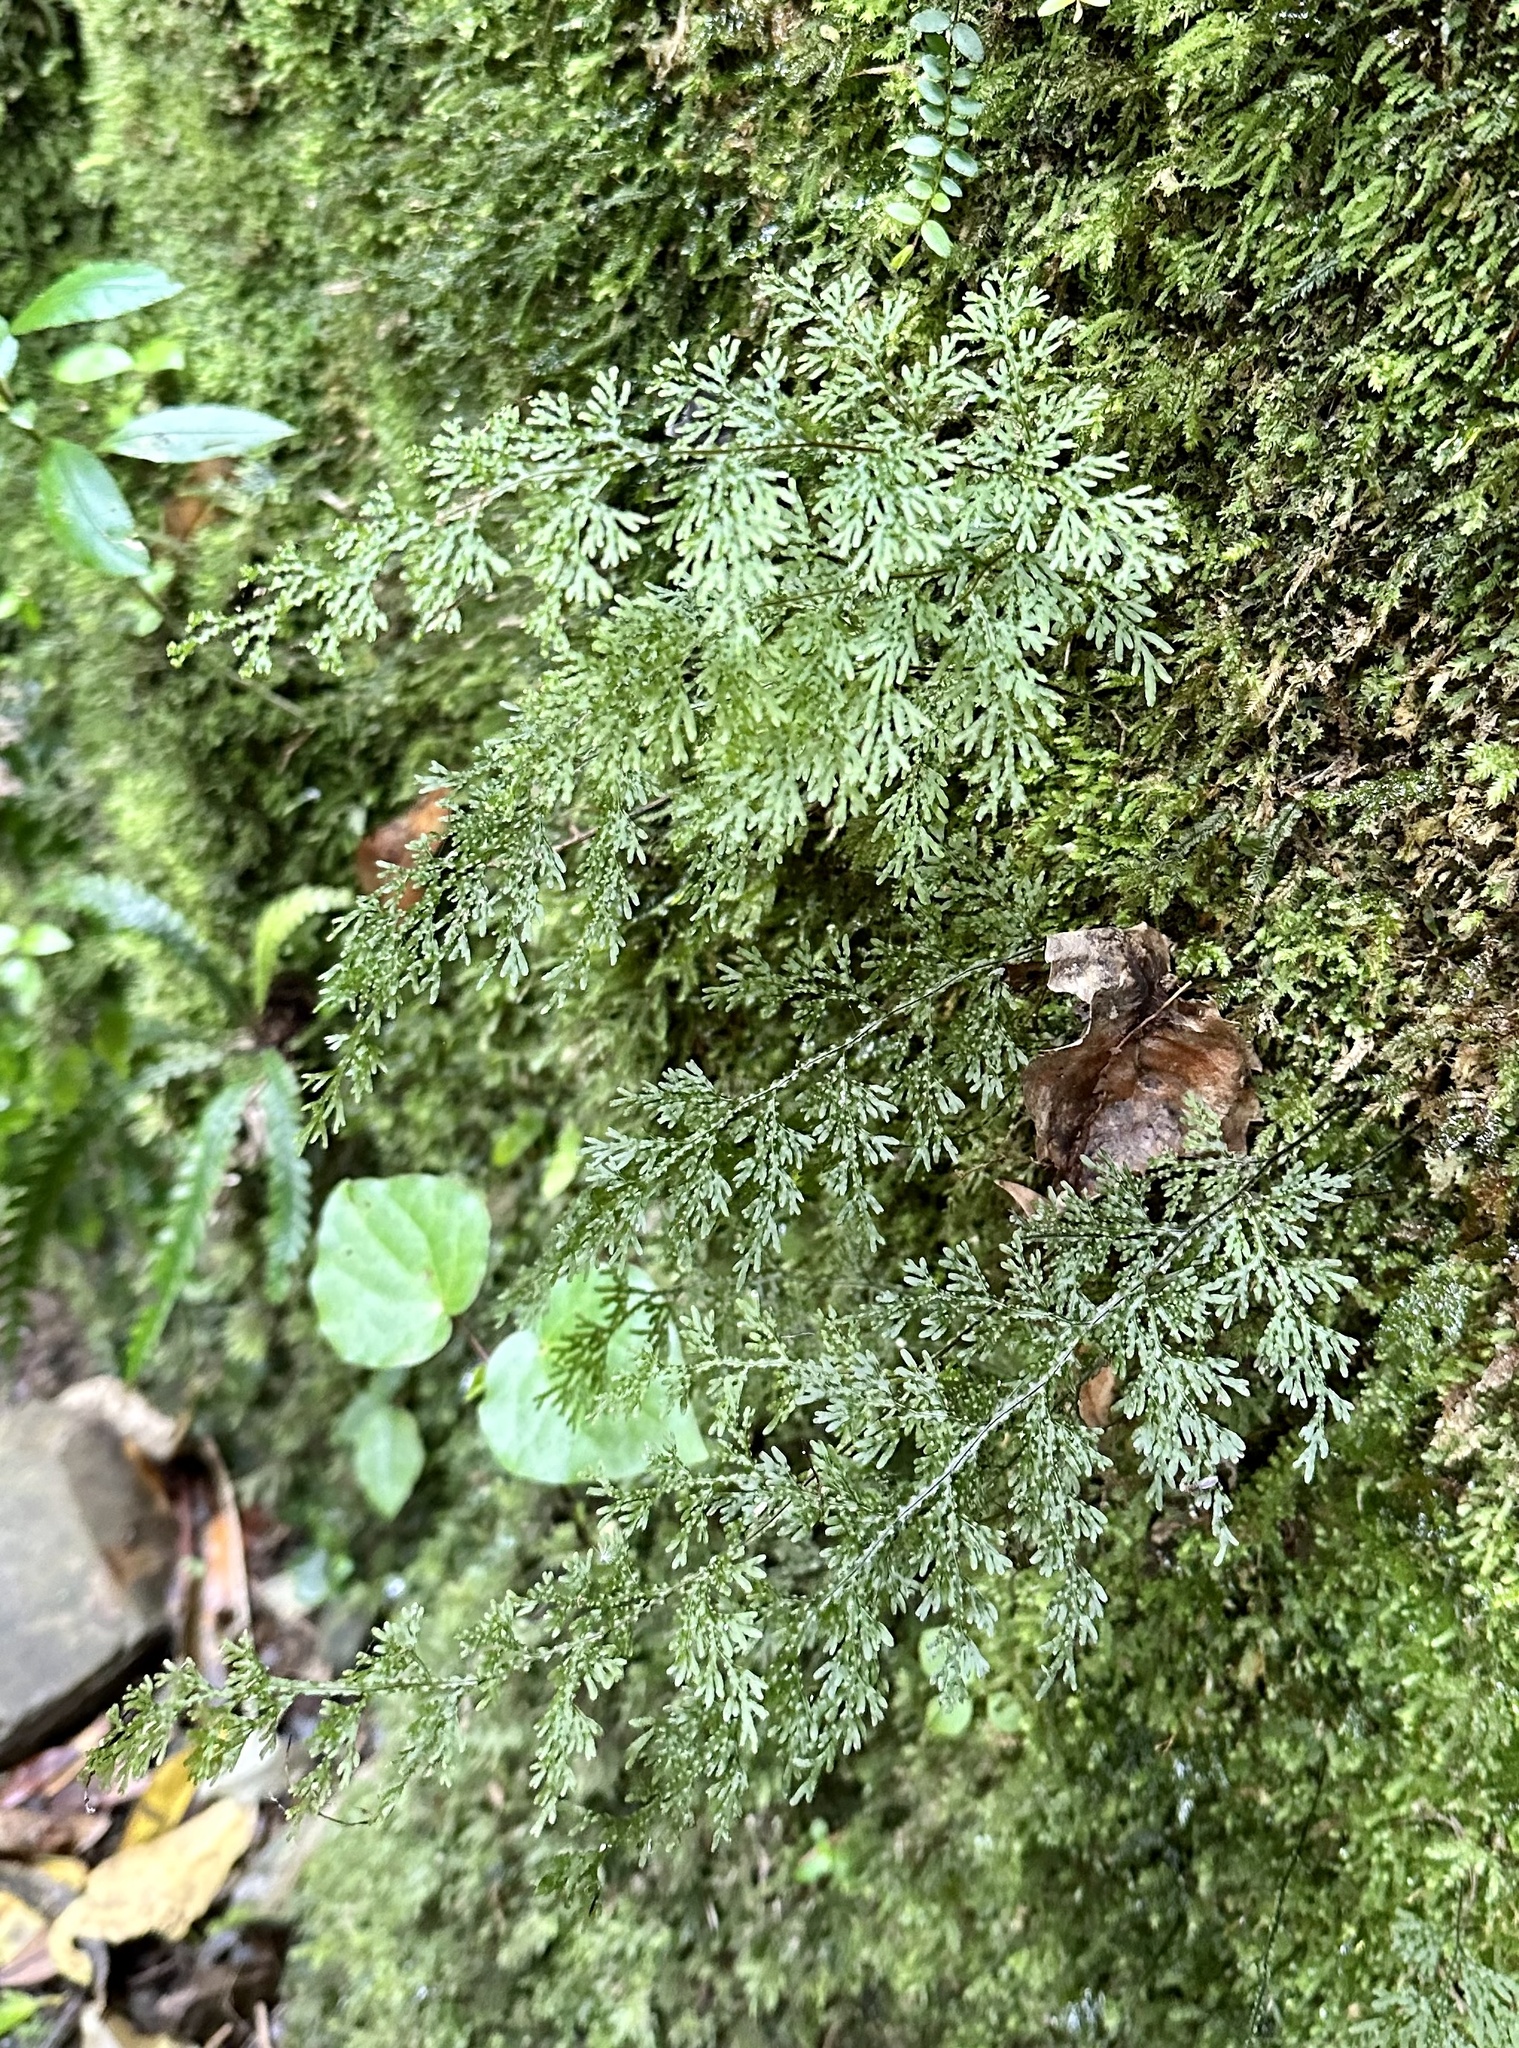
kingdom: Plantae
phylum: Tracheophyta
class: Polypodiopsida
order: Hymenophyllales
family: Hymenophyllaceae
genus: Hymenophyllum
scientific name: Hymenophyllum flexuosum
